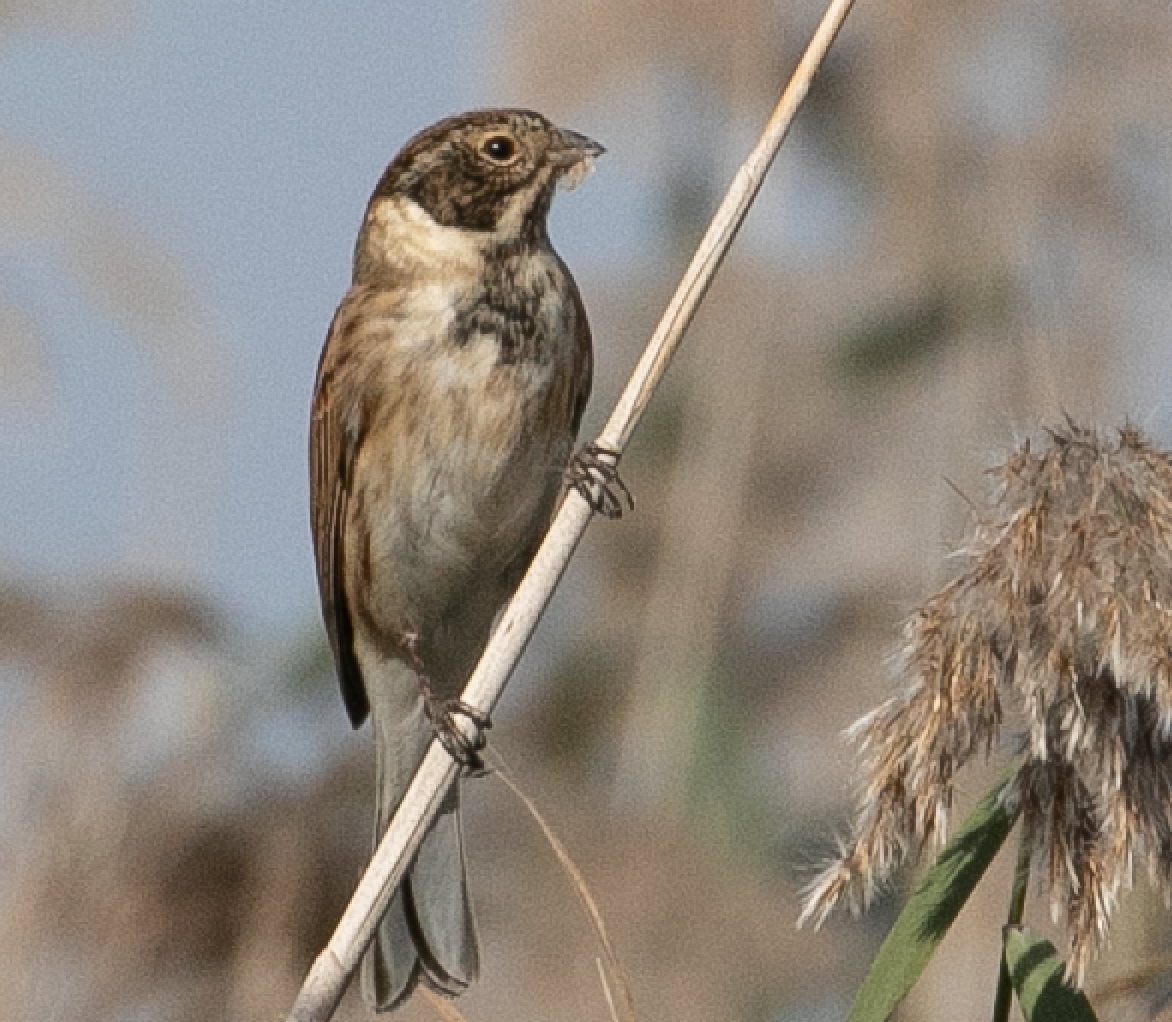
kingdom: Animalia
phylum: Chordata
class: Aves
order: Passeriformes
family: Emberizidae
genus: Emberiza
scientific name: Emberiza schoeniclus
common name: Reed bunting
